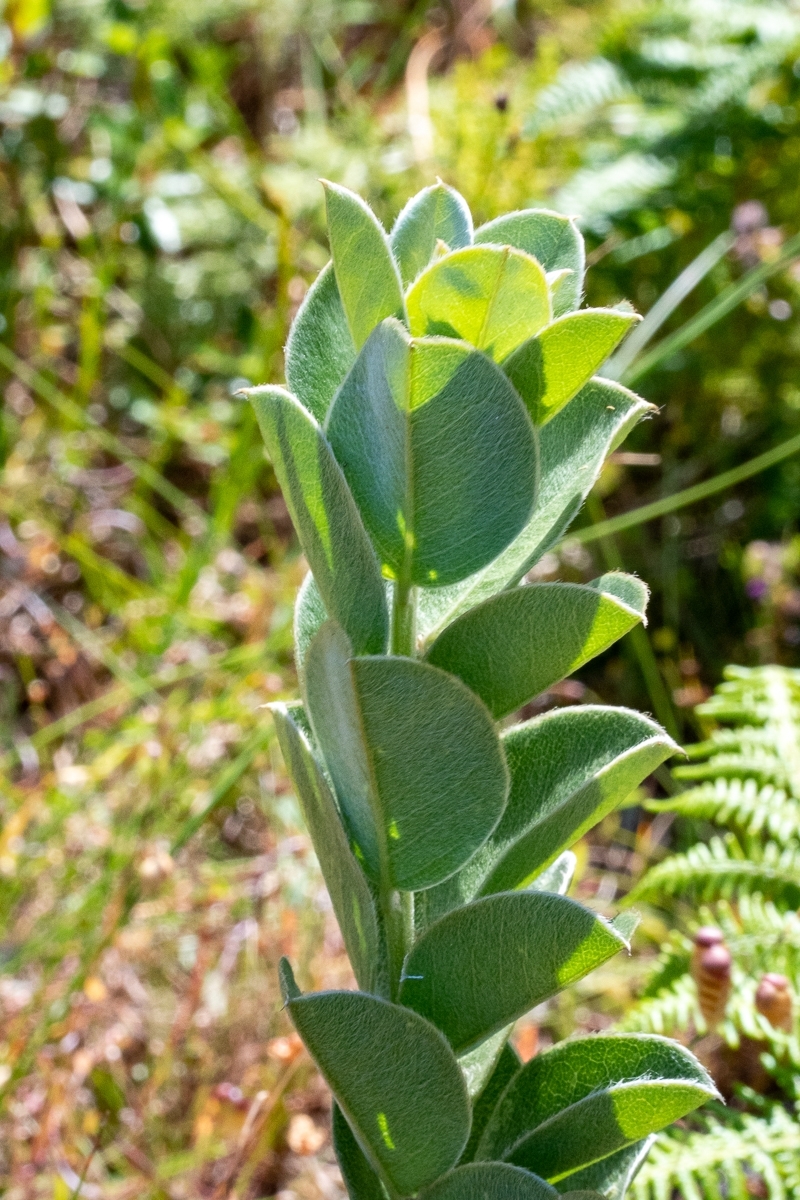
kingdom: Plantae
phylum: Tracheophyta
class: Magnoliopsida
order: Fabales
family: Fabaceae
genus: Podalyria
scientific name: Podalyria calyptrata
